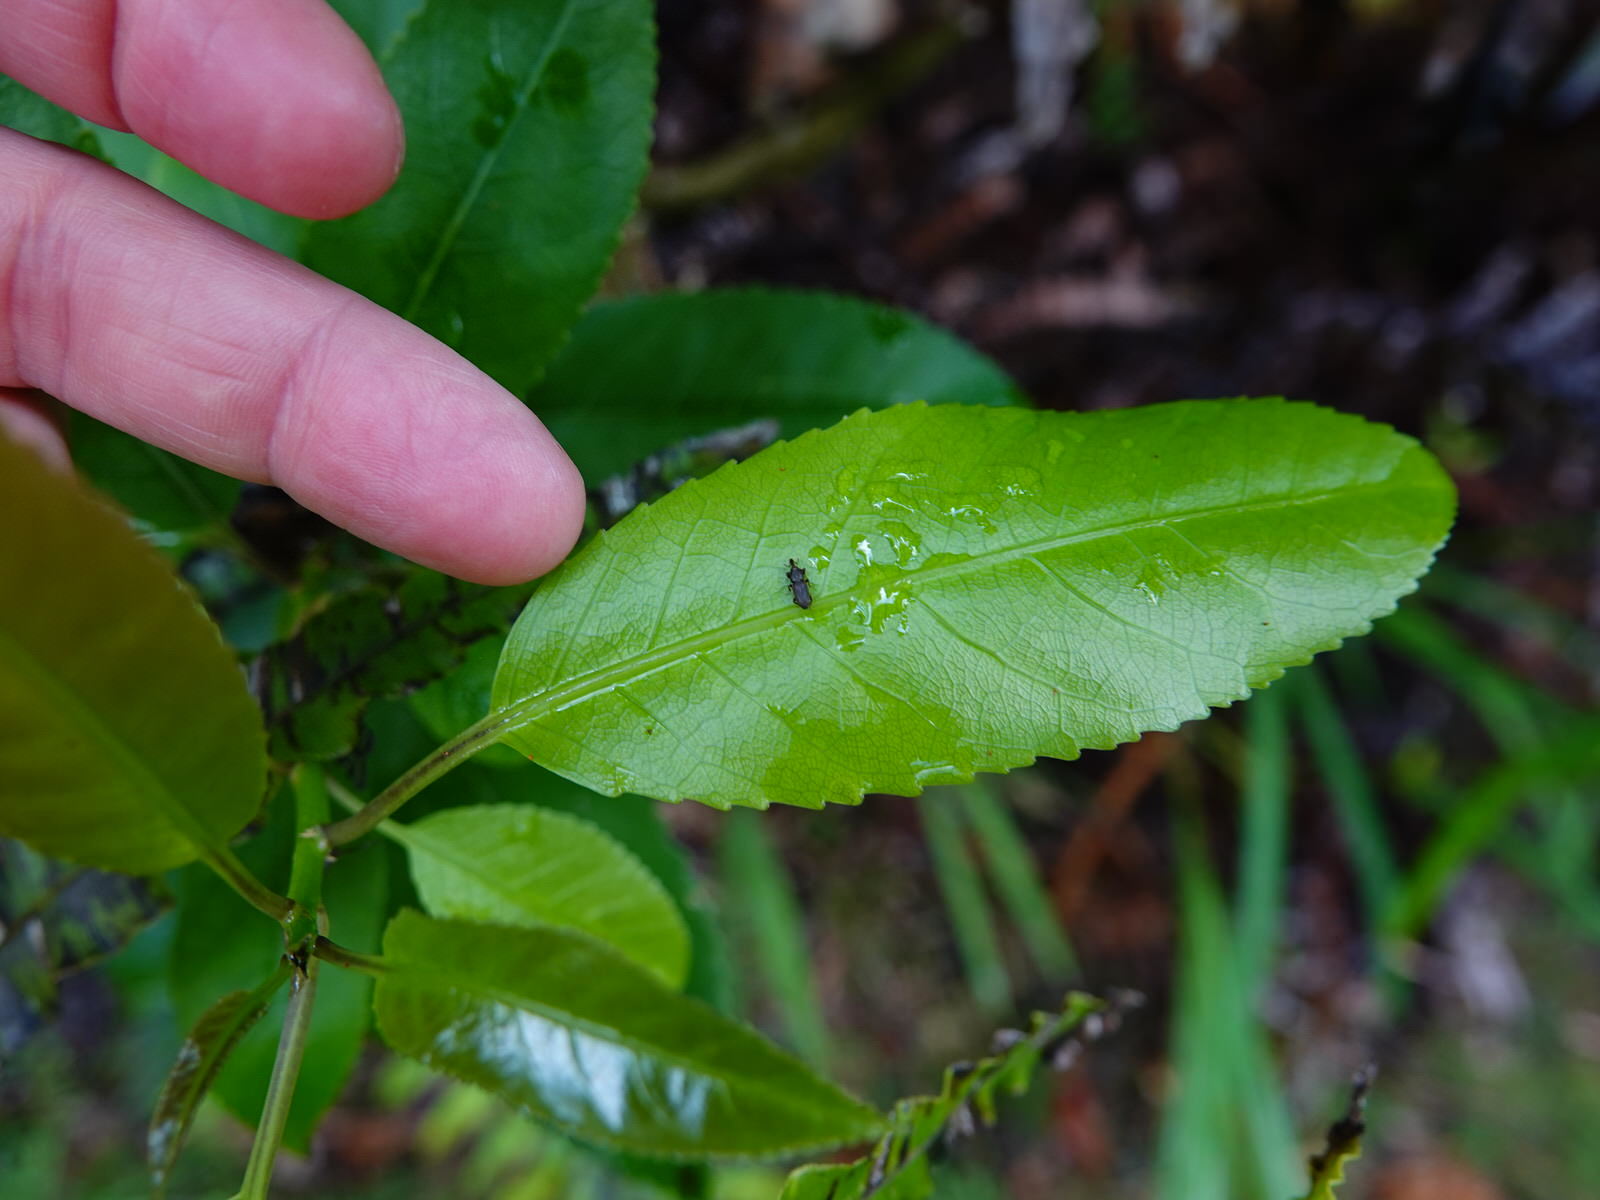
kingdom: Animalia
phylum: Arthropoda
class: Insecta
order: Coleoptera
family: Curculionidae
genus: Pogonorhinus
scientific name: Pogonorhinus opacus
